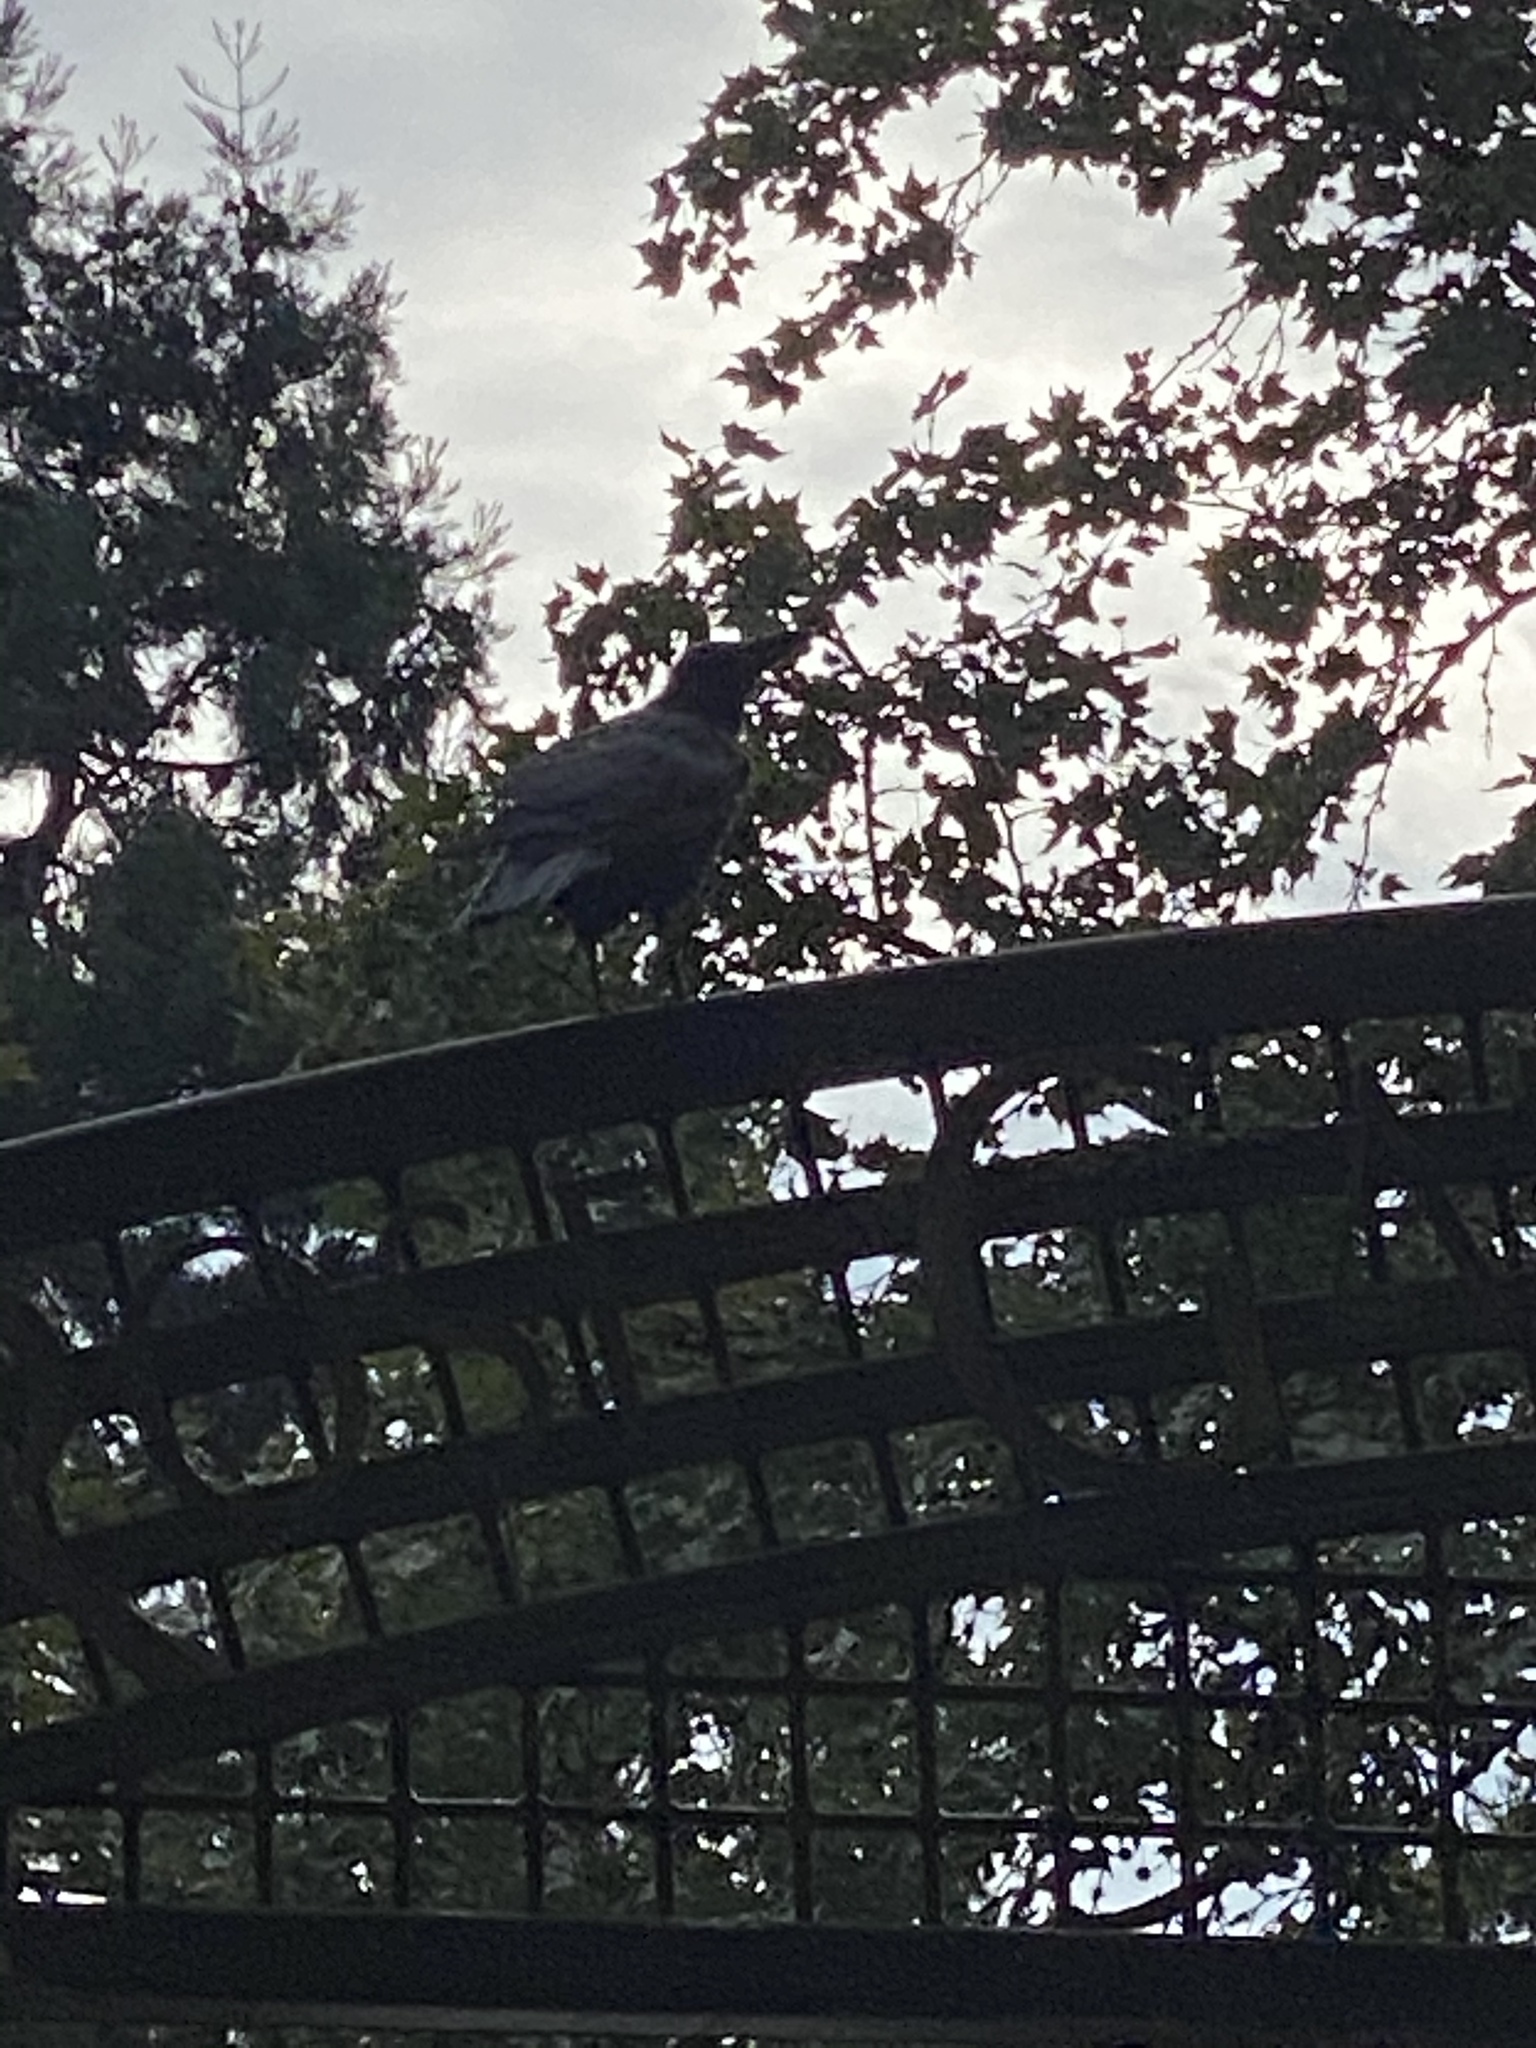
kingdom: Animalia
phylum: Chordata
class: Aves
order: Passeriformes
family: Corvidae
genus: Corvus
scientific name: Corvus brachyrhynchos
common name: American crow
